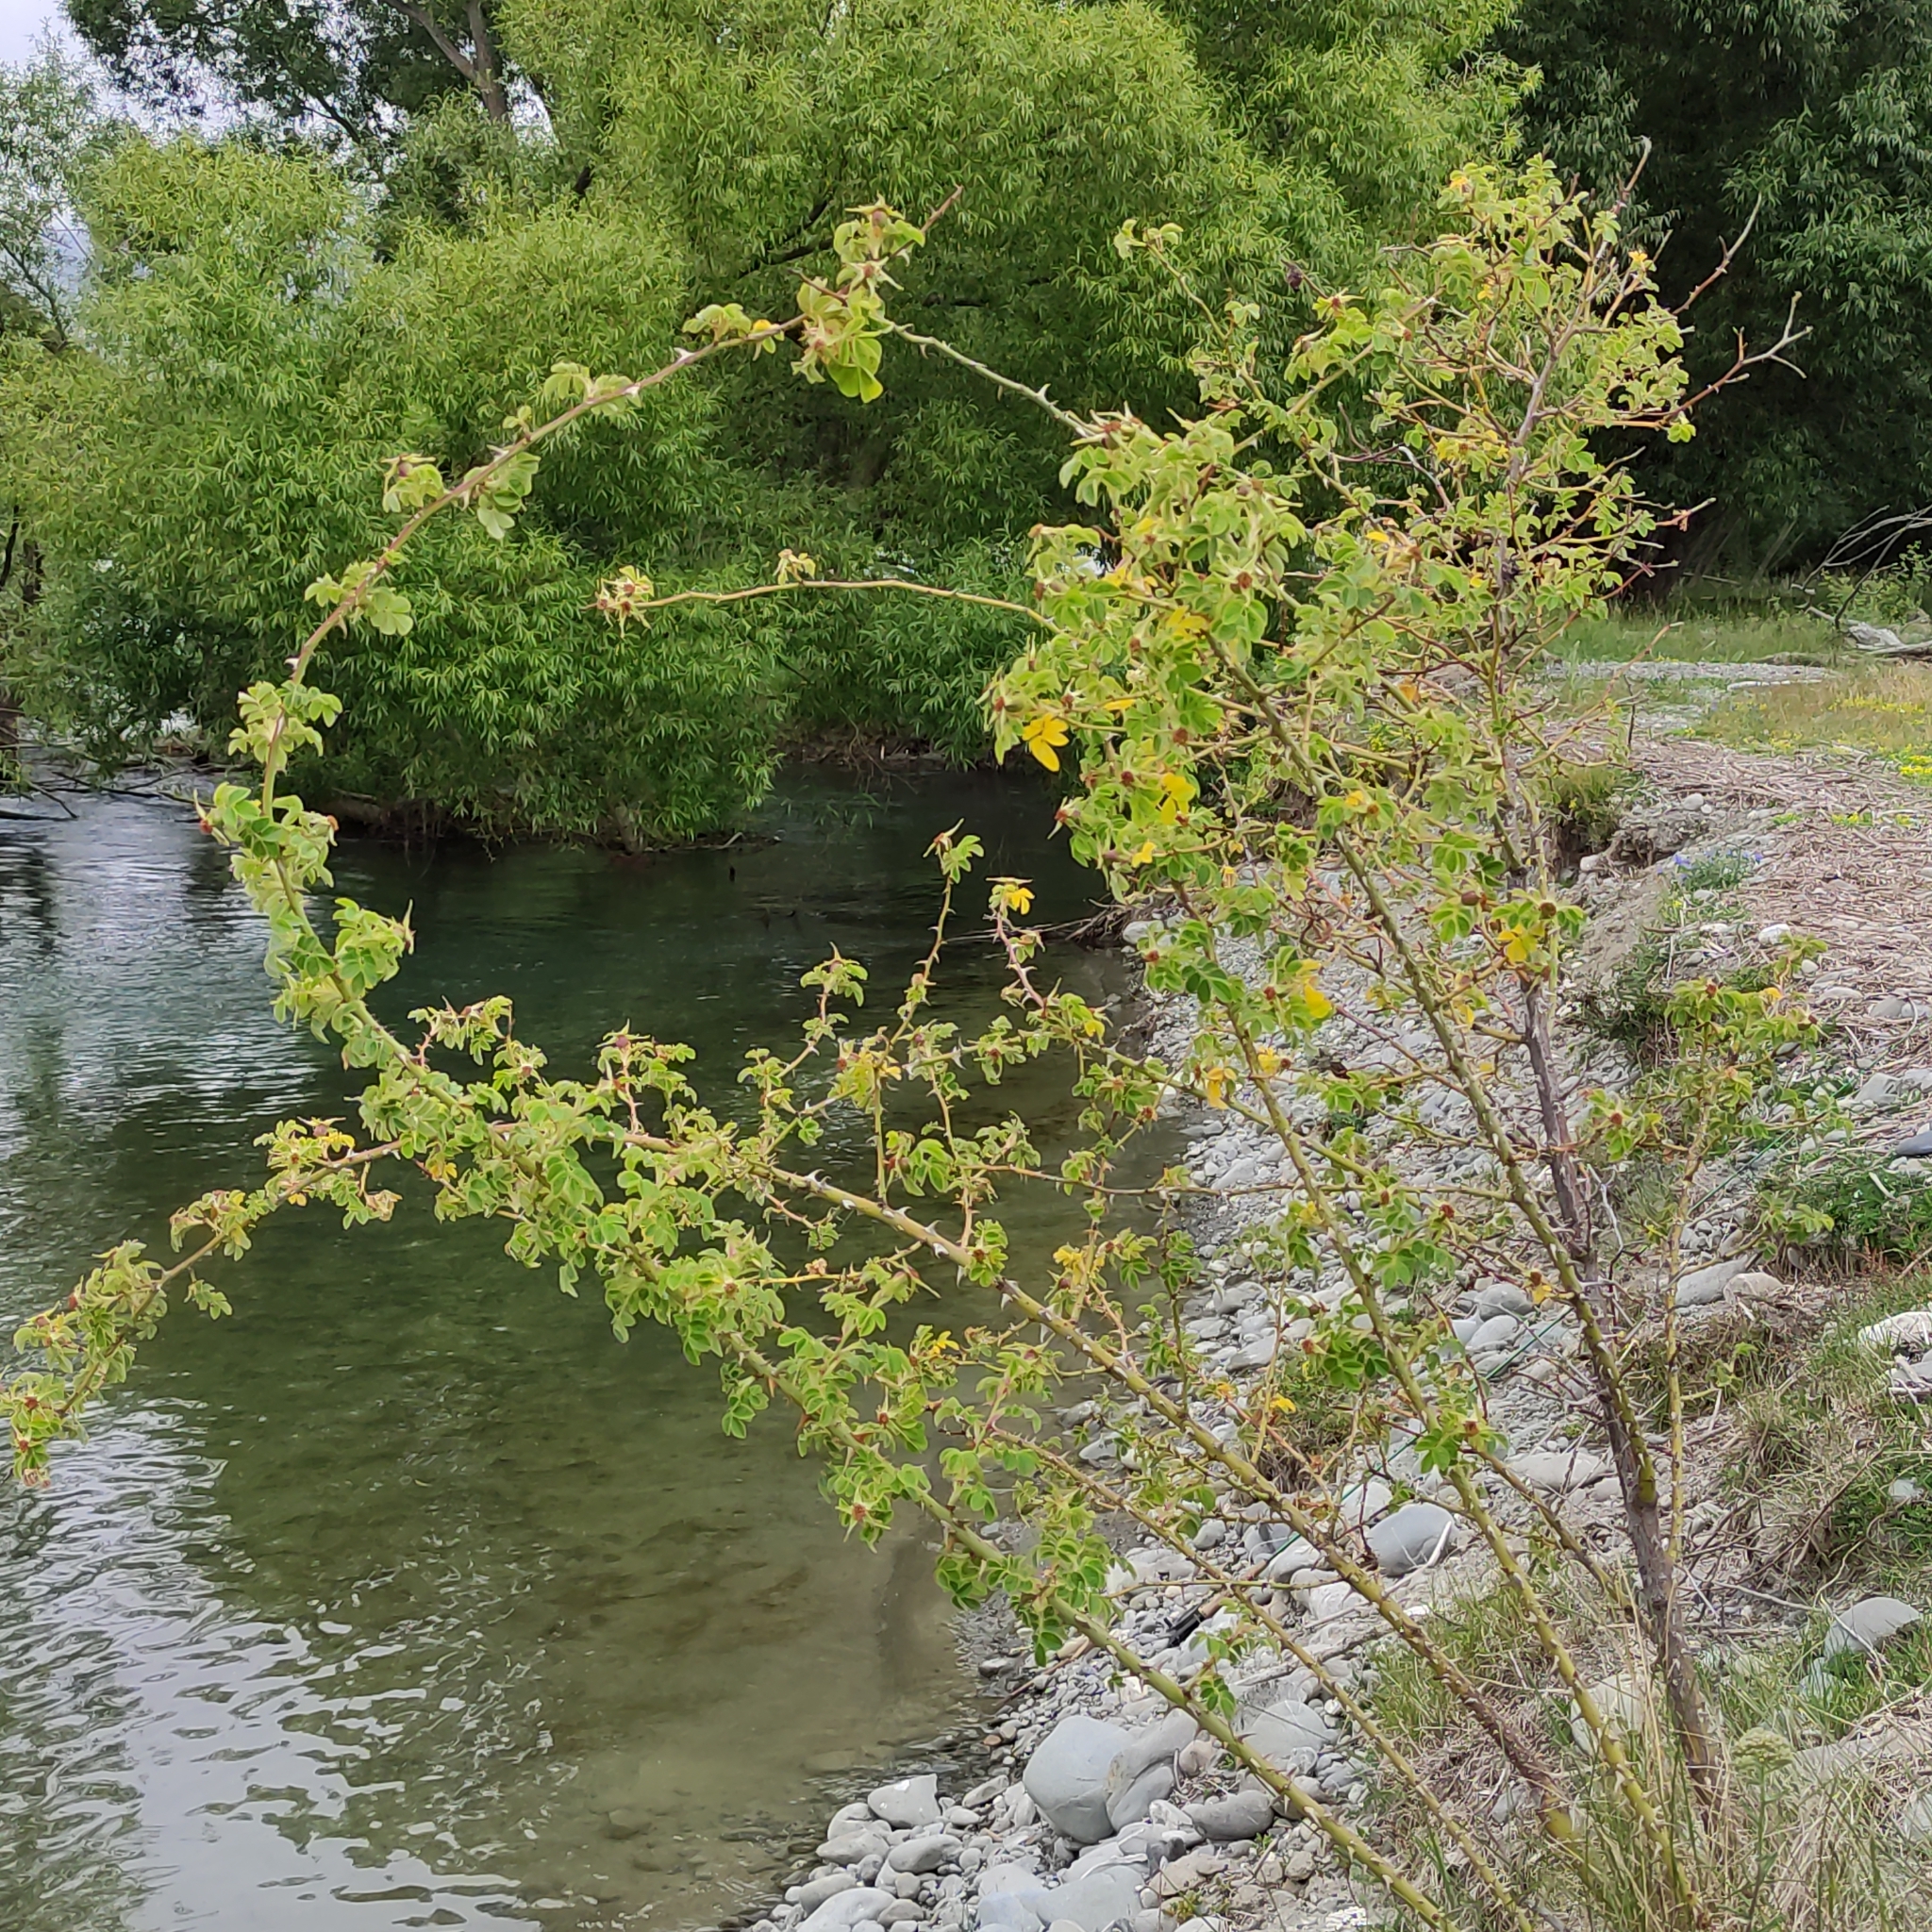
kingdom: Plantae
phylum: Tracheophyta
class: Magnoliopsida
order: Rosales
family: Rosaceae
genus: Rosa
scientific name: Rosa rubiginosa
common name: Sweet-briar
